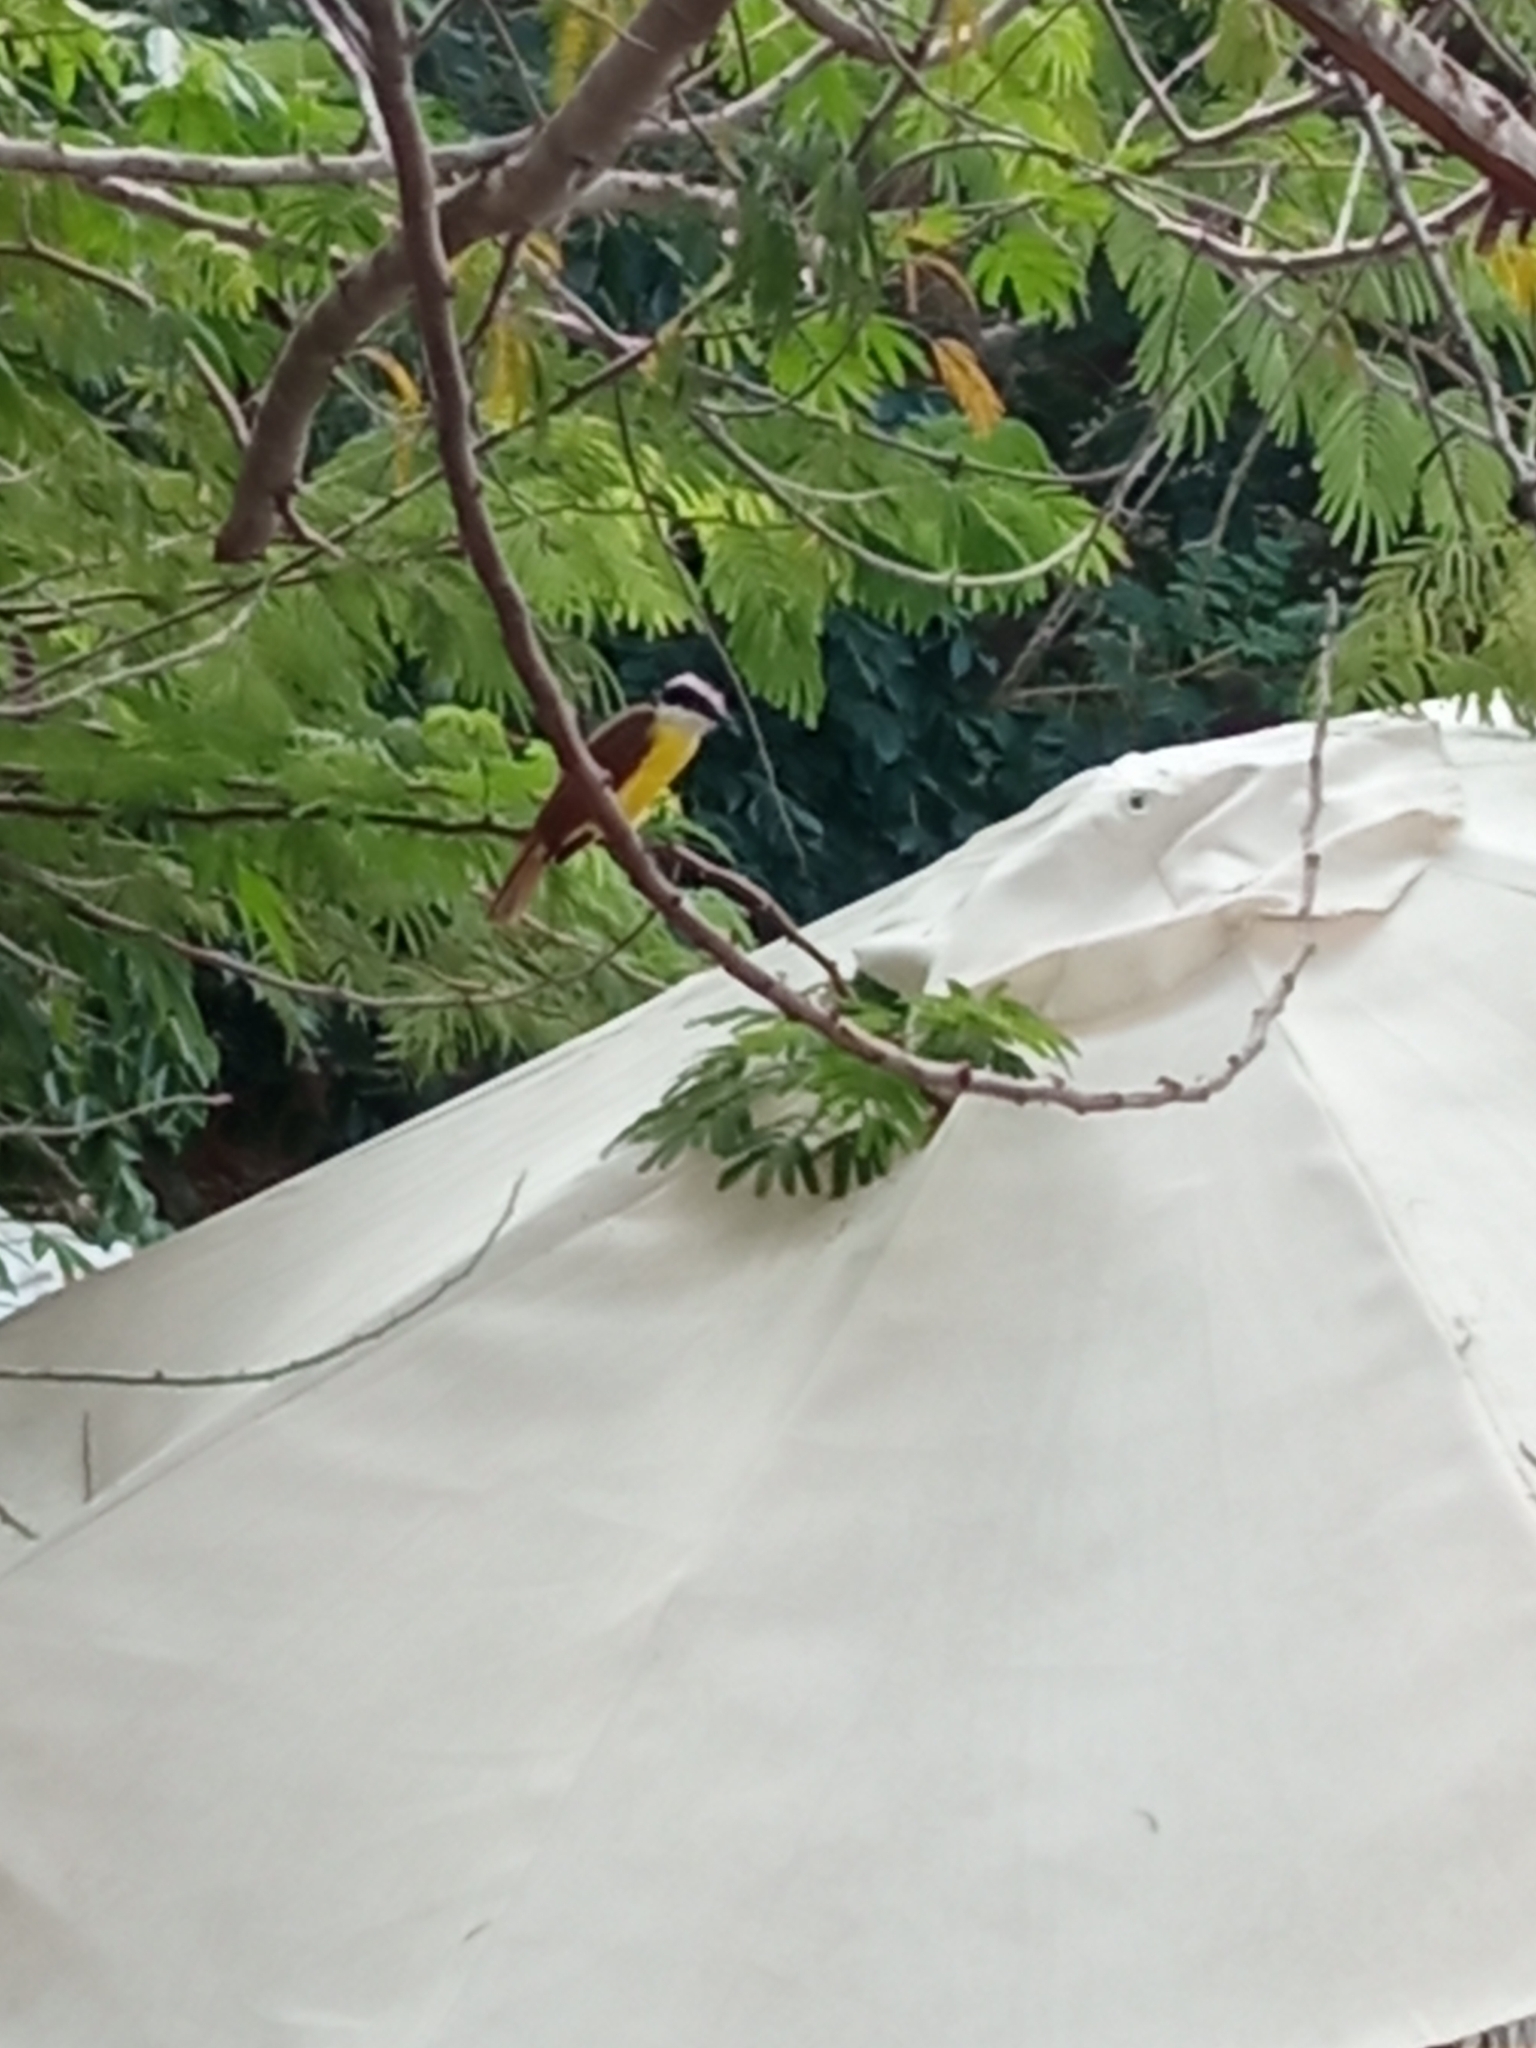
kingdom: Animalia
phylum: Chordata
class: Aves
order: Passeriformes
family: Tyrannidae
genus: Pitangus
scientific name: Pitangus sulphuratus
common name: Great kiskadee
